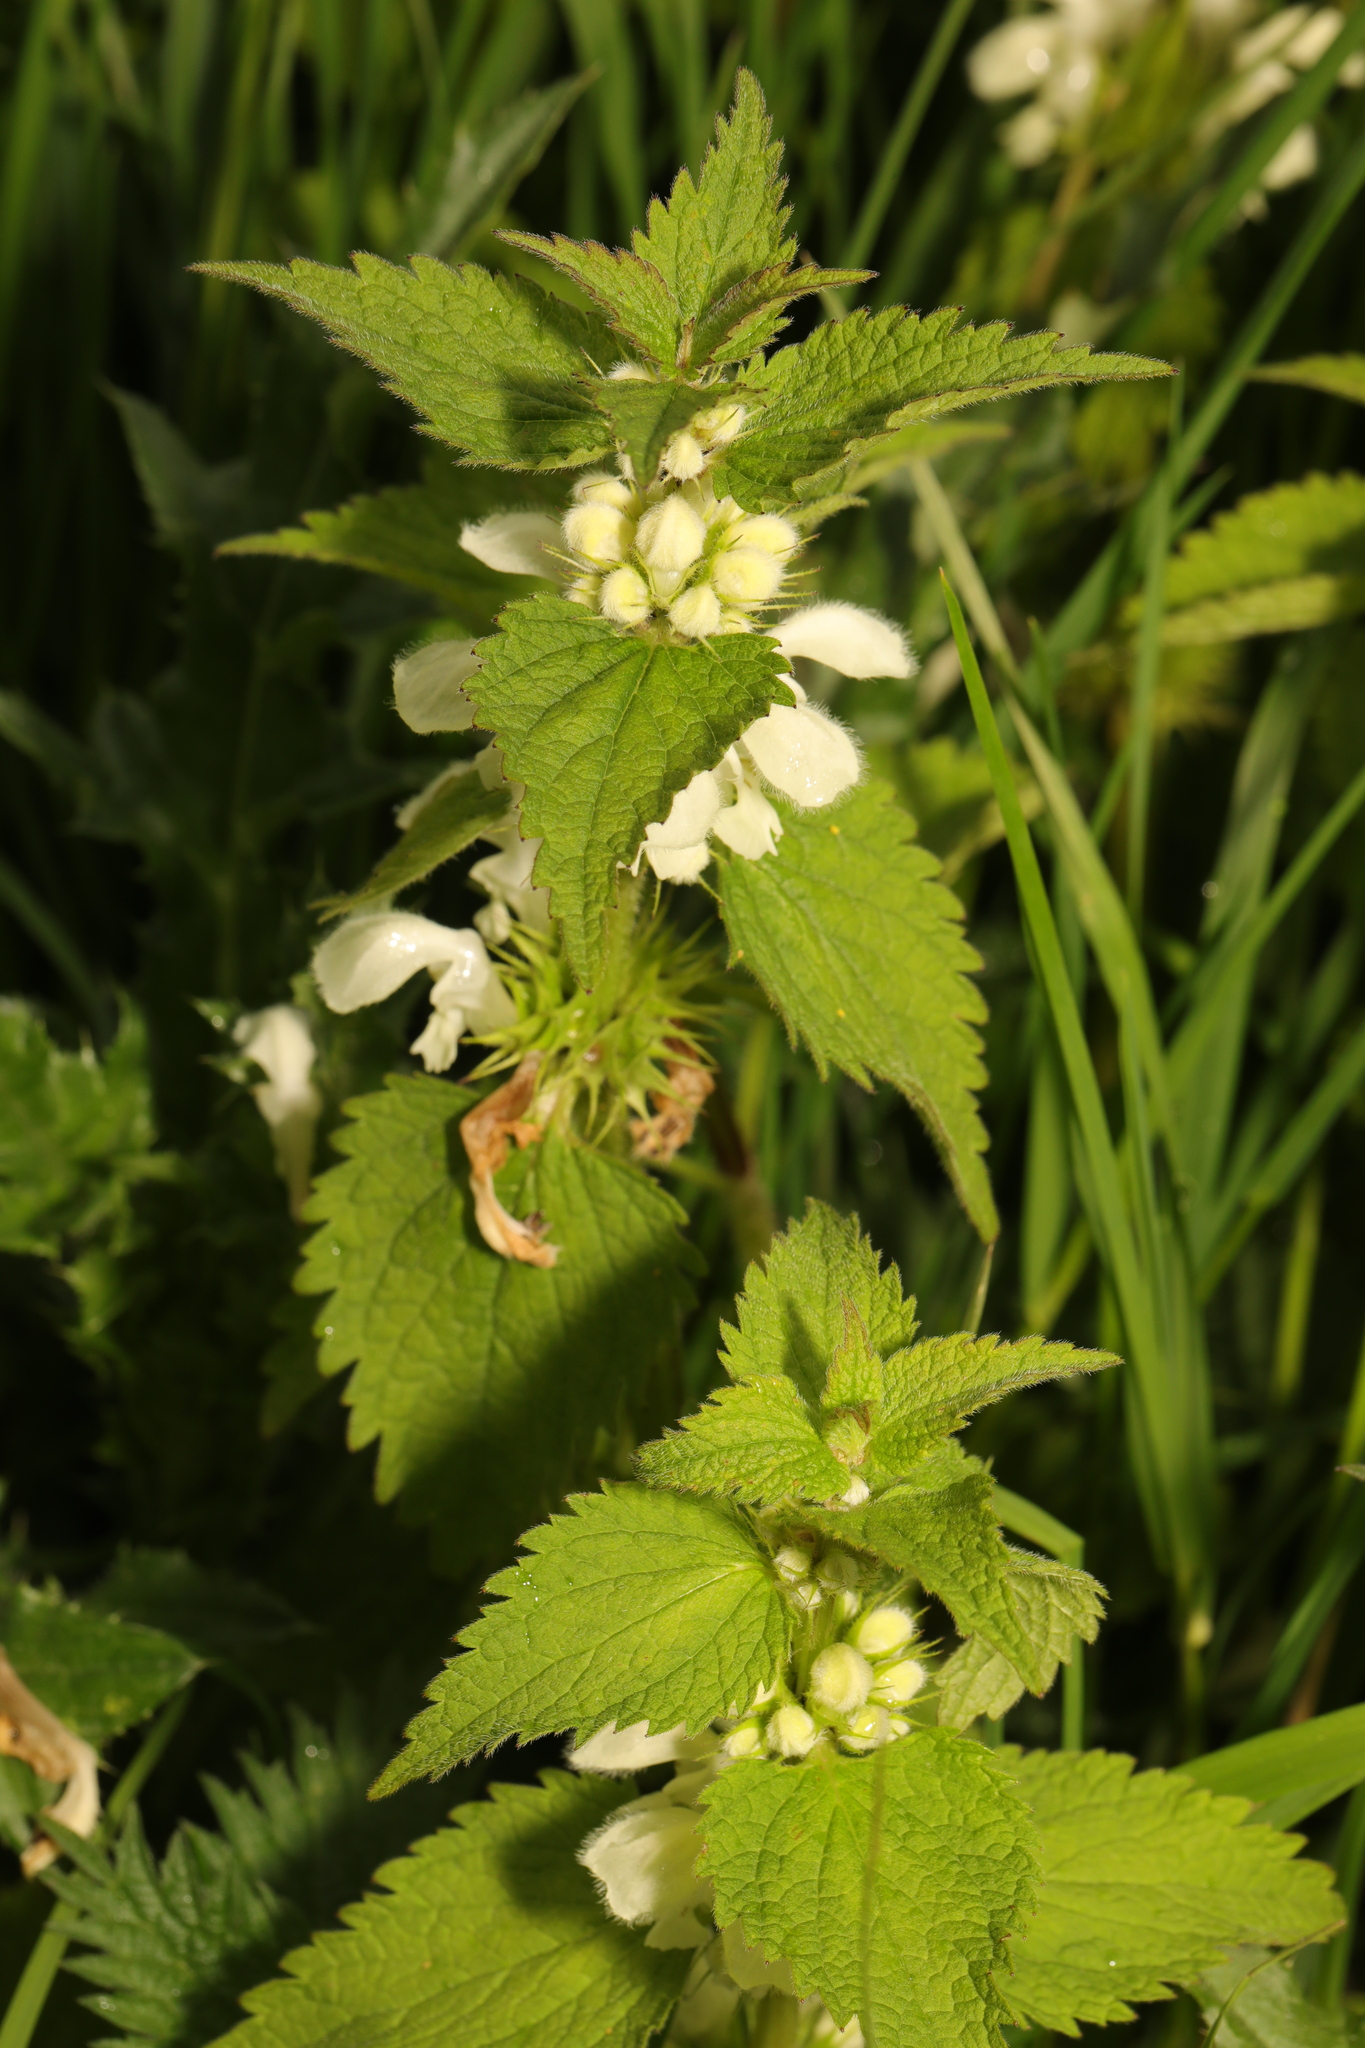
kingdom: Plantae
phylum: Tracheophyta
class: Magnoliopsida
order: Lamiales
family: Lamiaceae
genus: Lamium
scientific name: Lamium album
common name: White dead-nettle
